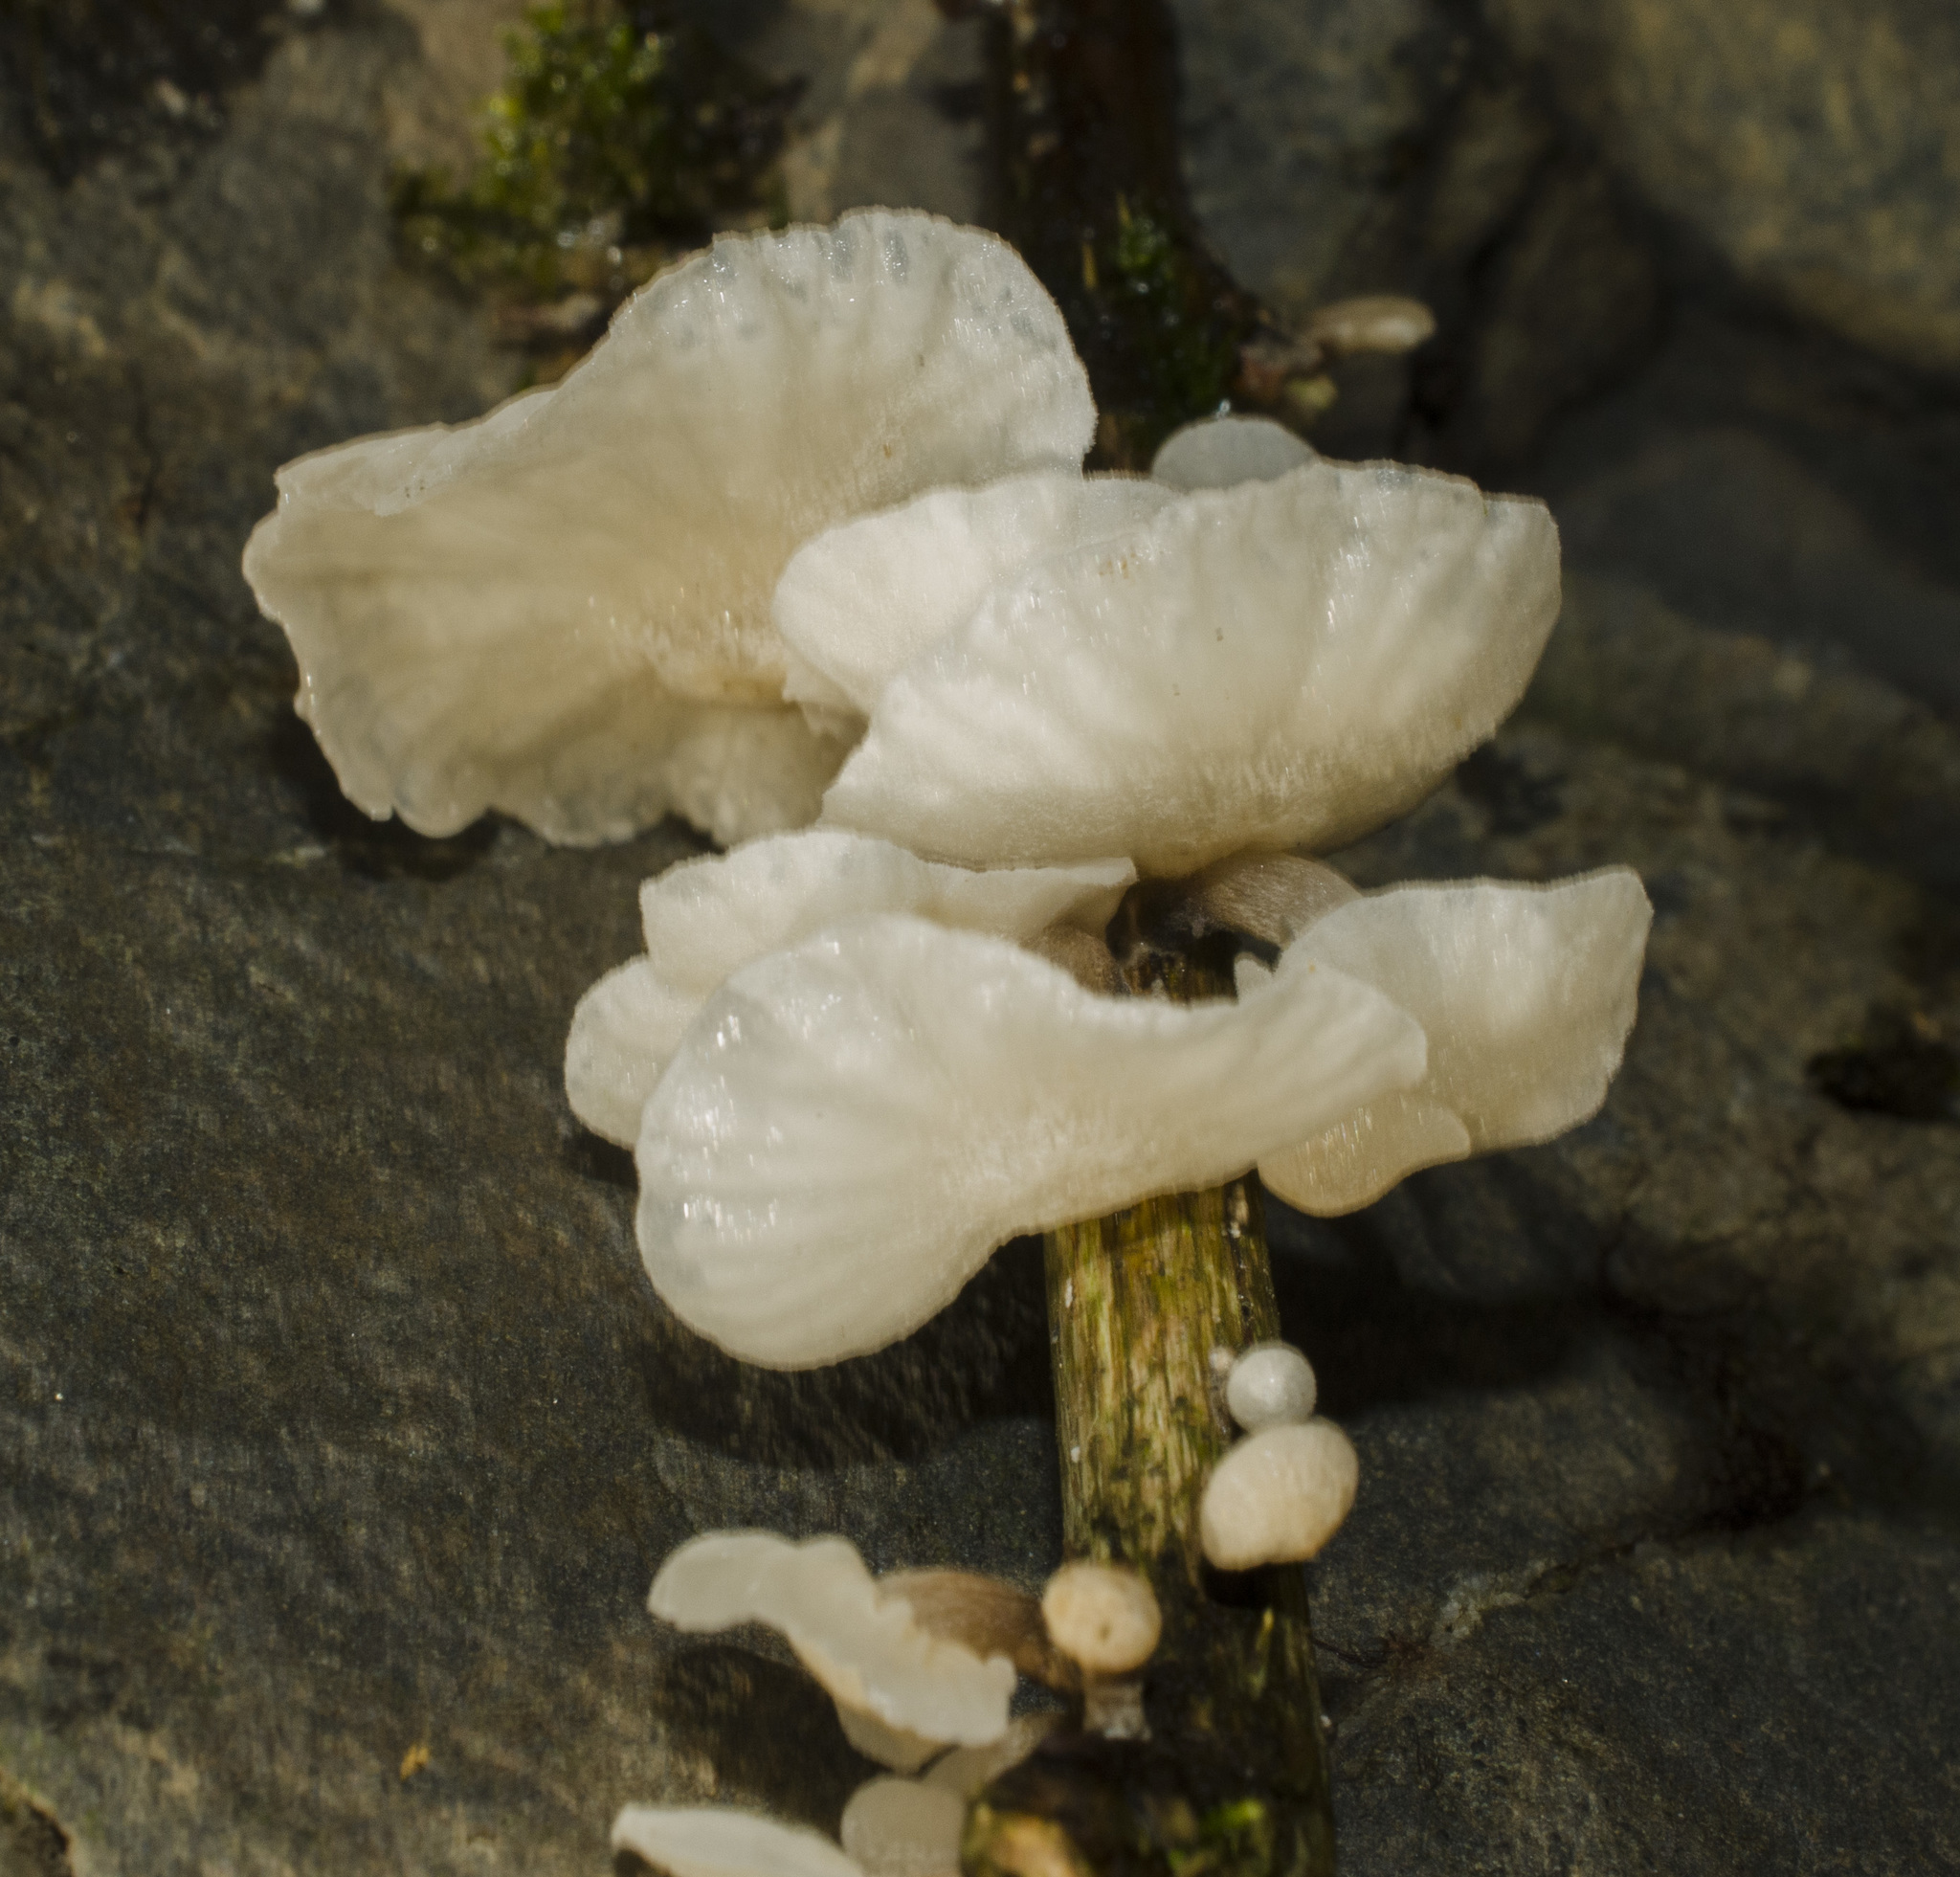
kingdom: Fungi
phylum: Basidiomycota
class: Agaricomycetes
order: Agaricales
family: Omphalotaceae
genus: Marasmiellus
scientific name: Marasmiellus candidus
